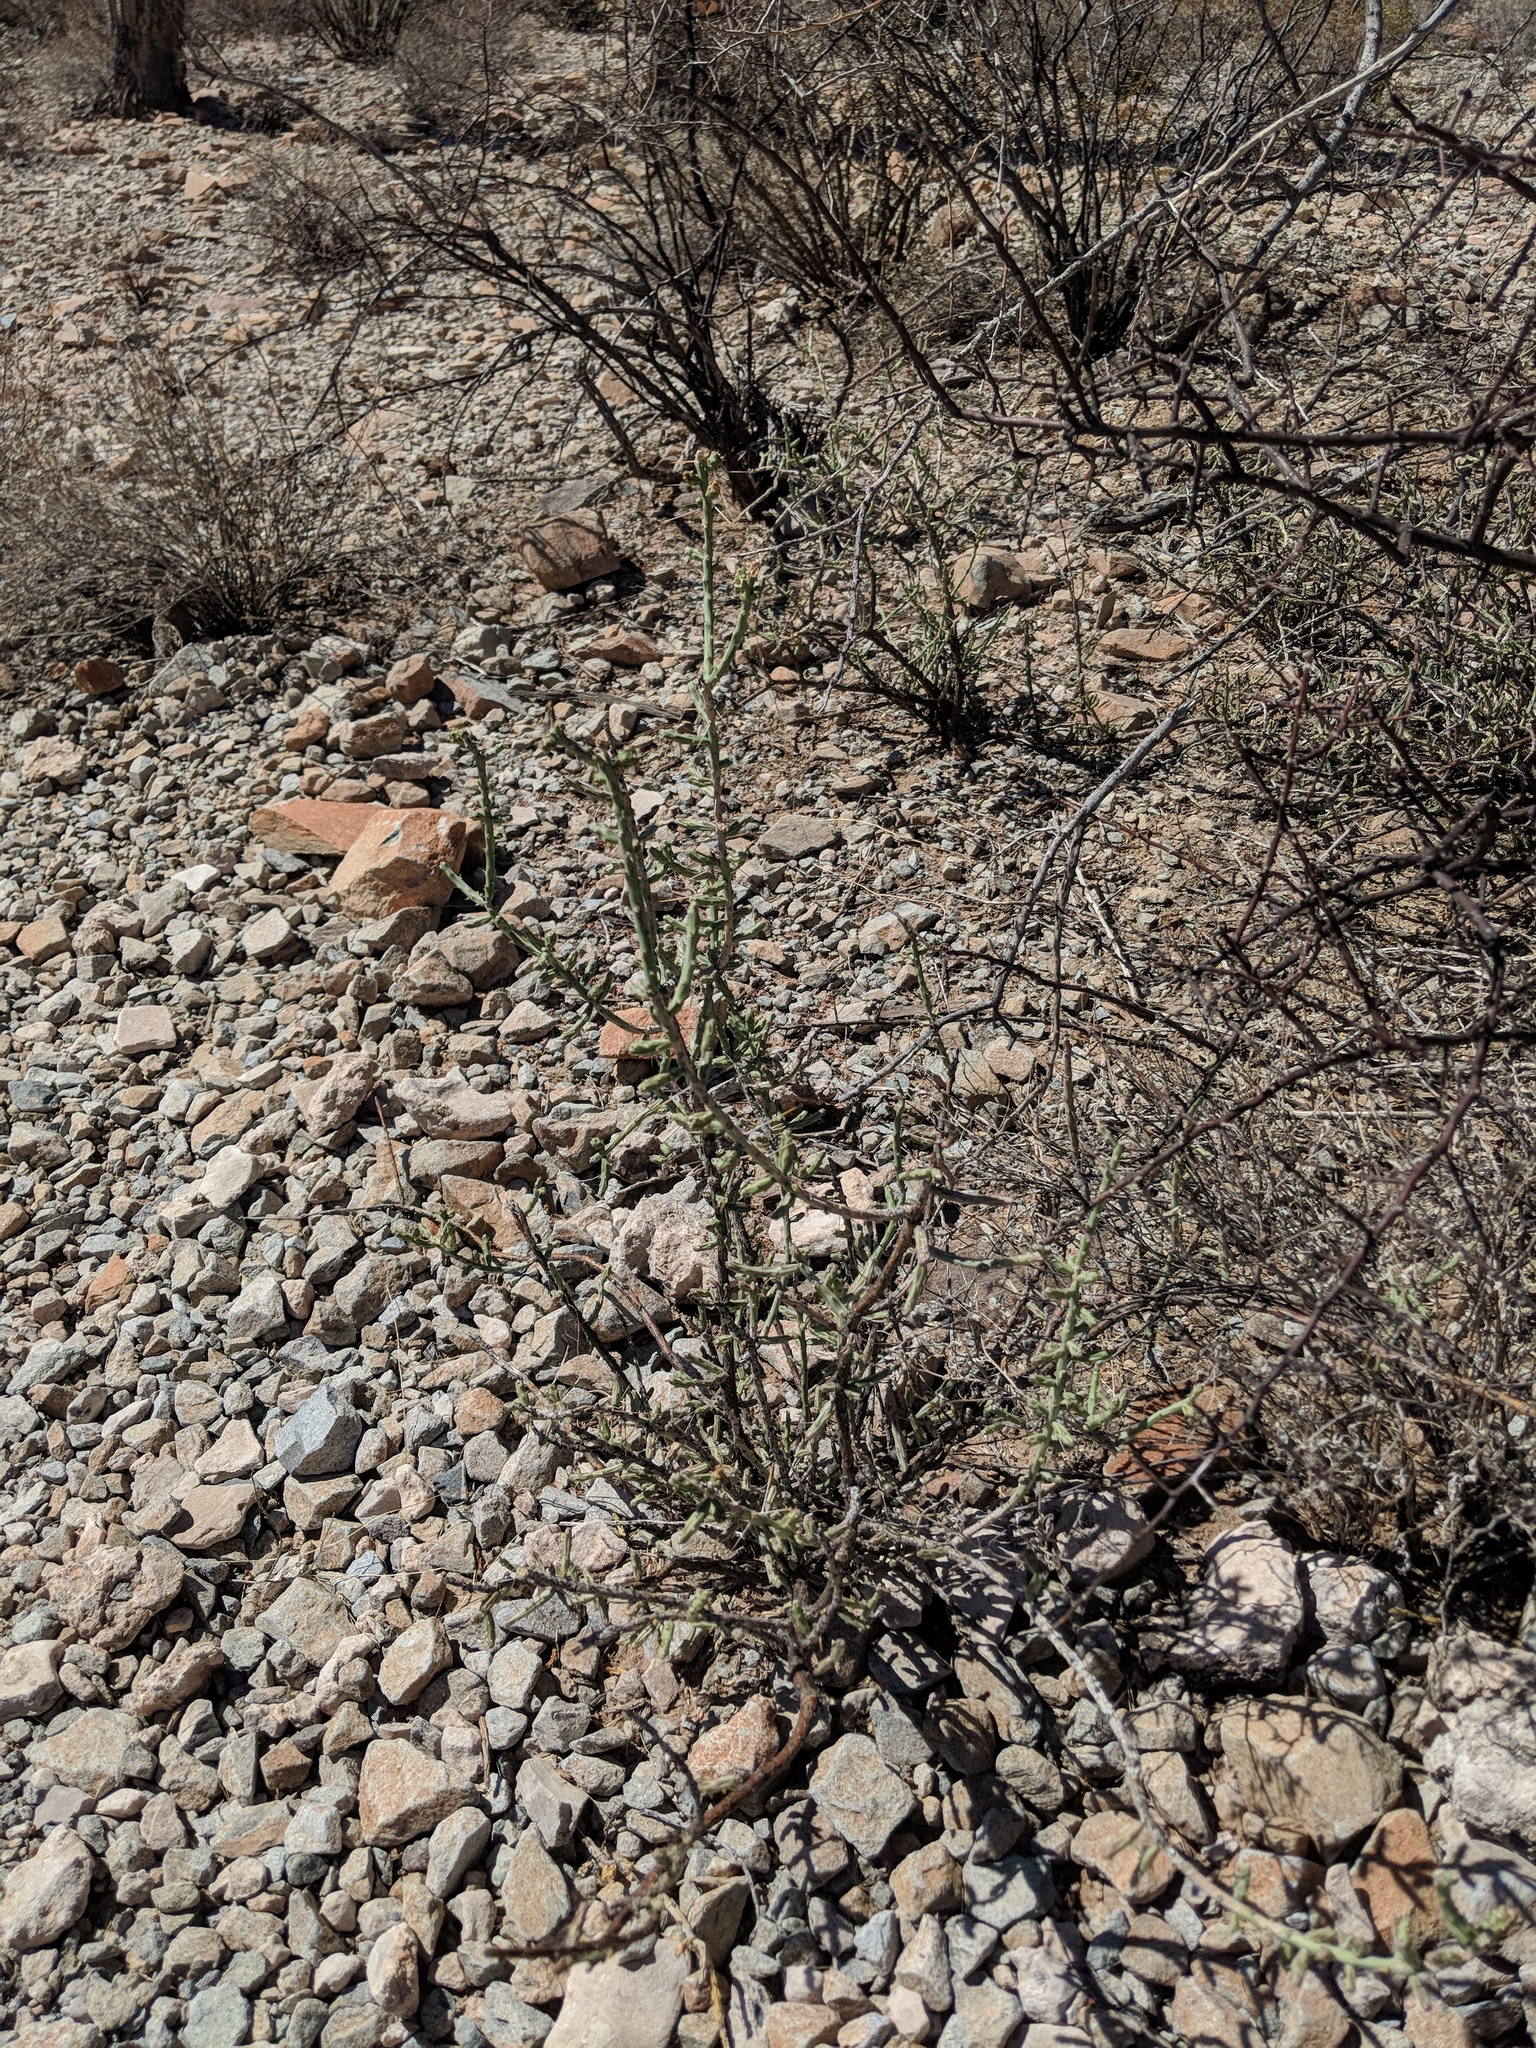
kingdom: Plantae
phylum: Tracheophyta
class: Magnoliopsida
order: Caryophyllales
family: Cactaceae
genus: Cylindropuntia
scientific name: Cylindropuntia leptocaulis
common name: Christmas cactus
